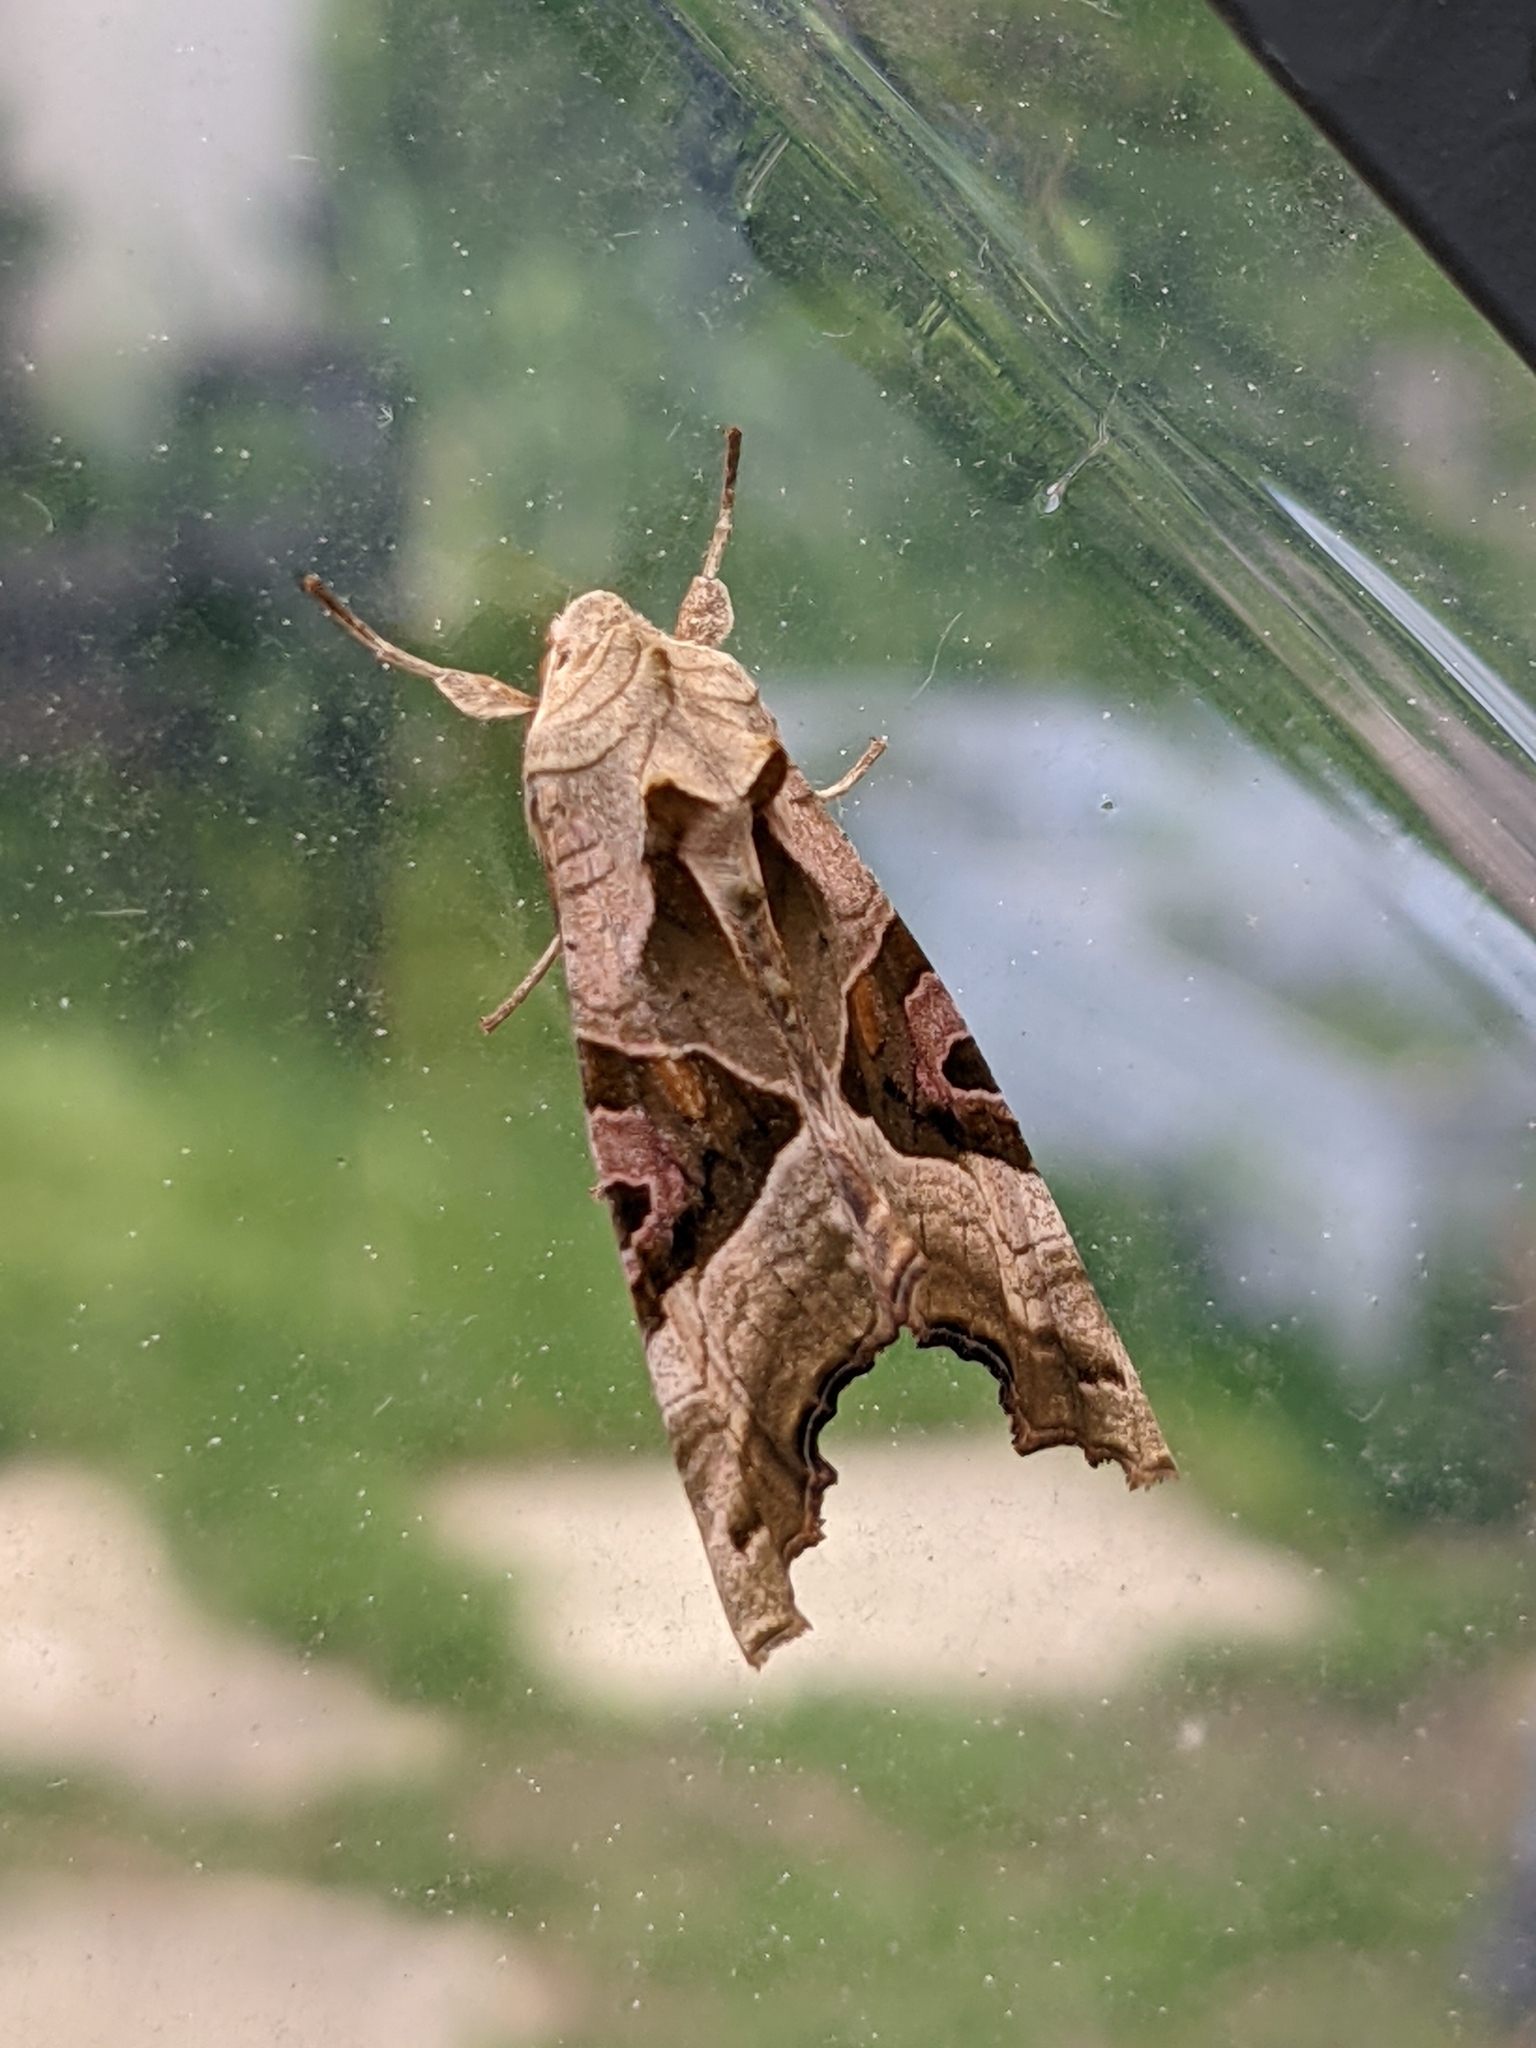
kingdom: Animalia
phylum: Arthropoda
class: Insecta
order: Lepidoptera
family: Noctuidae
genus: Phlogophora
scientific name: Phlogophora meticulosa
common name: Angle shades
